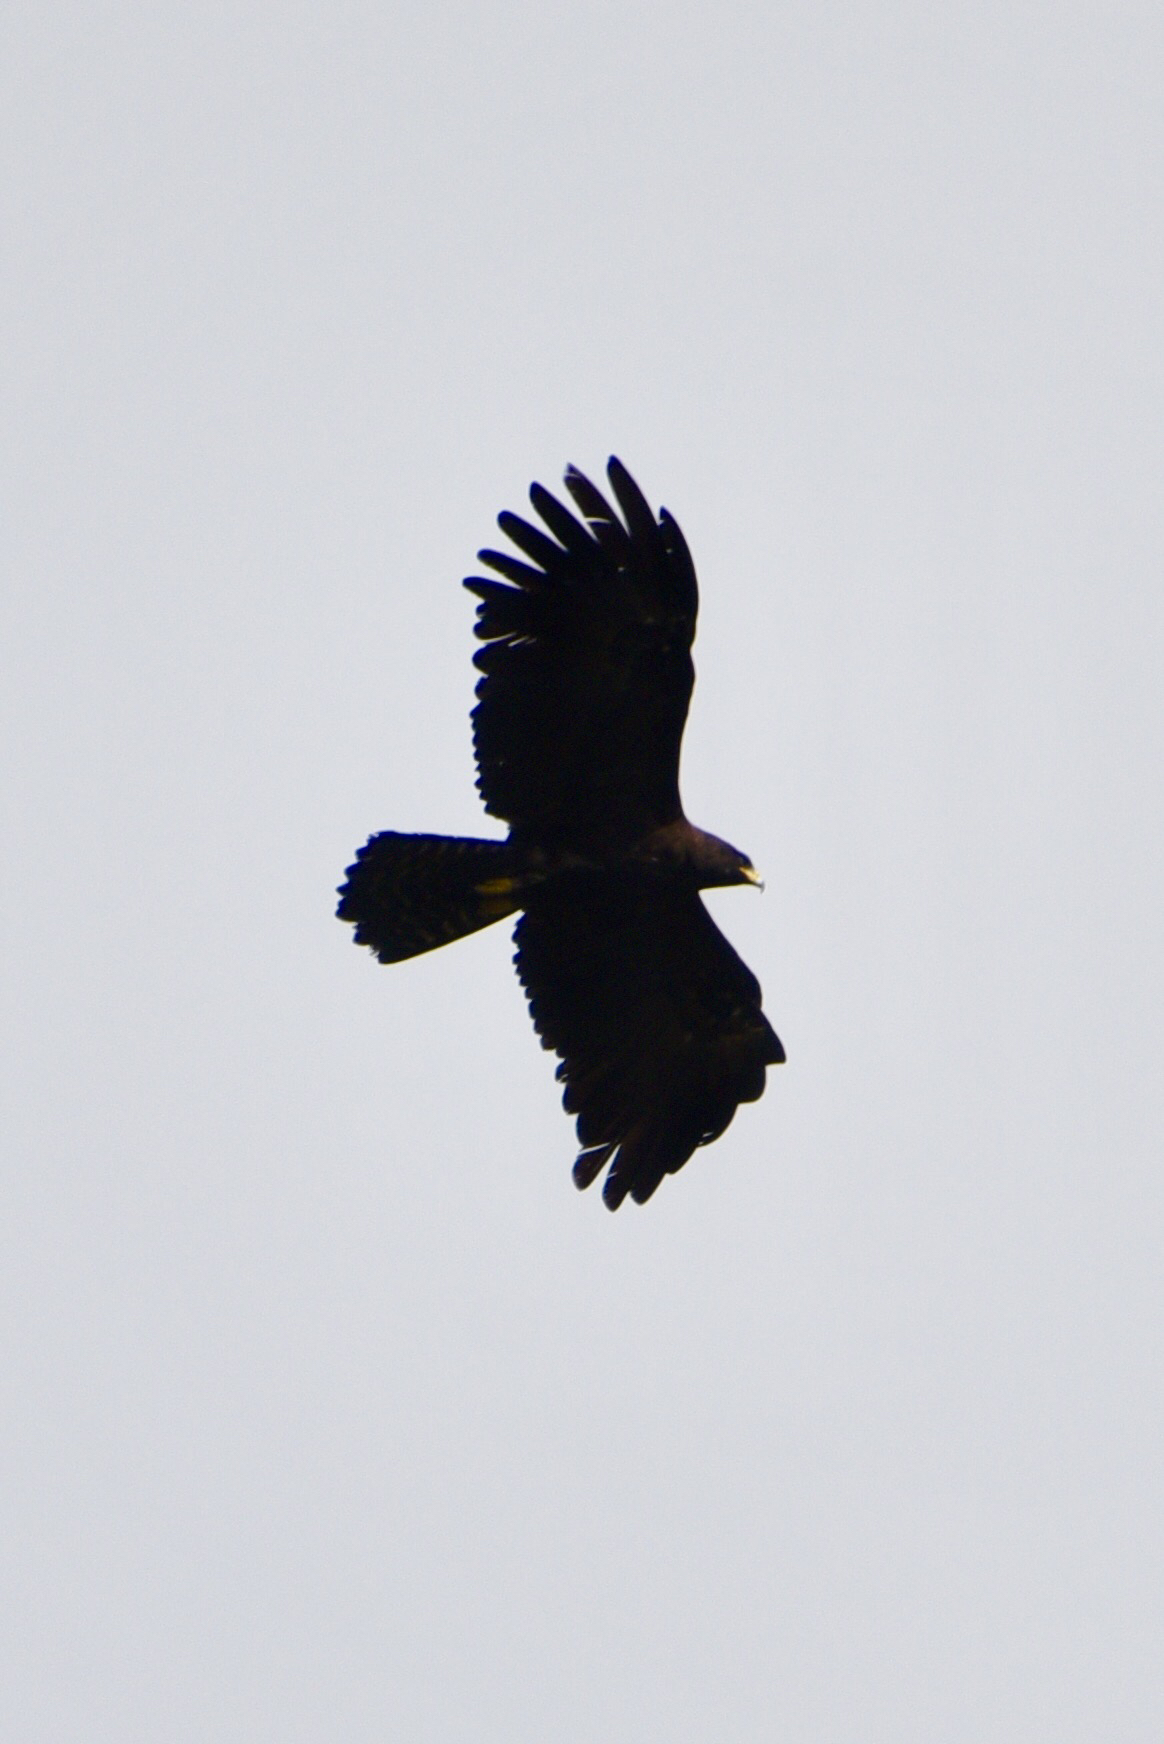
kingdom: Animalia
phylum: Chordata
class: Aves
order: Accipitriformes
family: Accipitridae
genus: Ictinaetus
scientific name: Ictinaetus malayensis
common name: Black eagle
